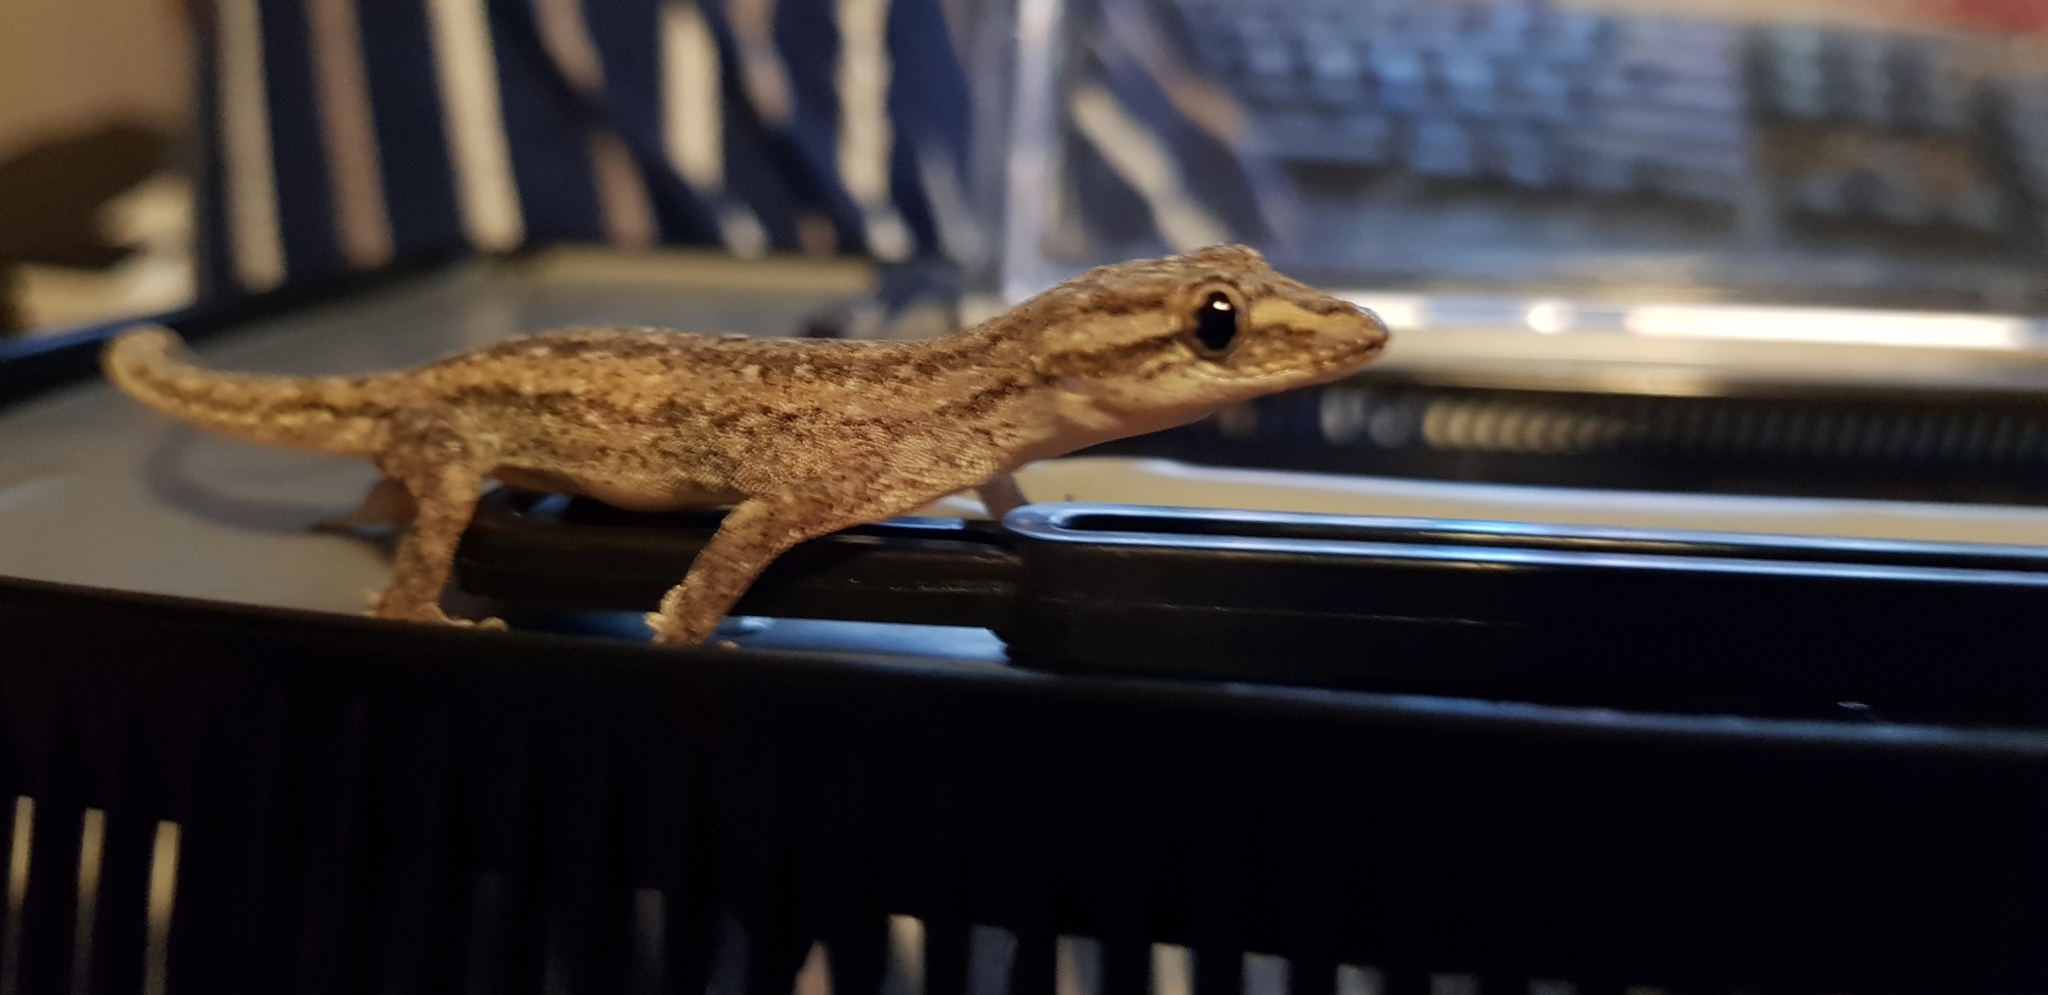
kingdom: Animalia
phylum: Chordata
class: Squamata
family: Gekkonidae
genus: Hemidactylus
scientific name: Hemidactylus frenatus
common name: Common house gecko
